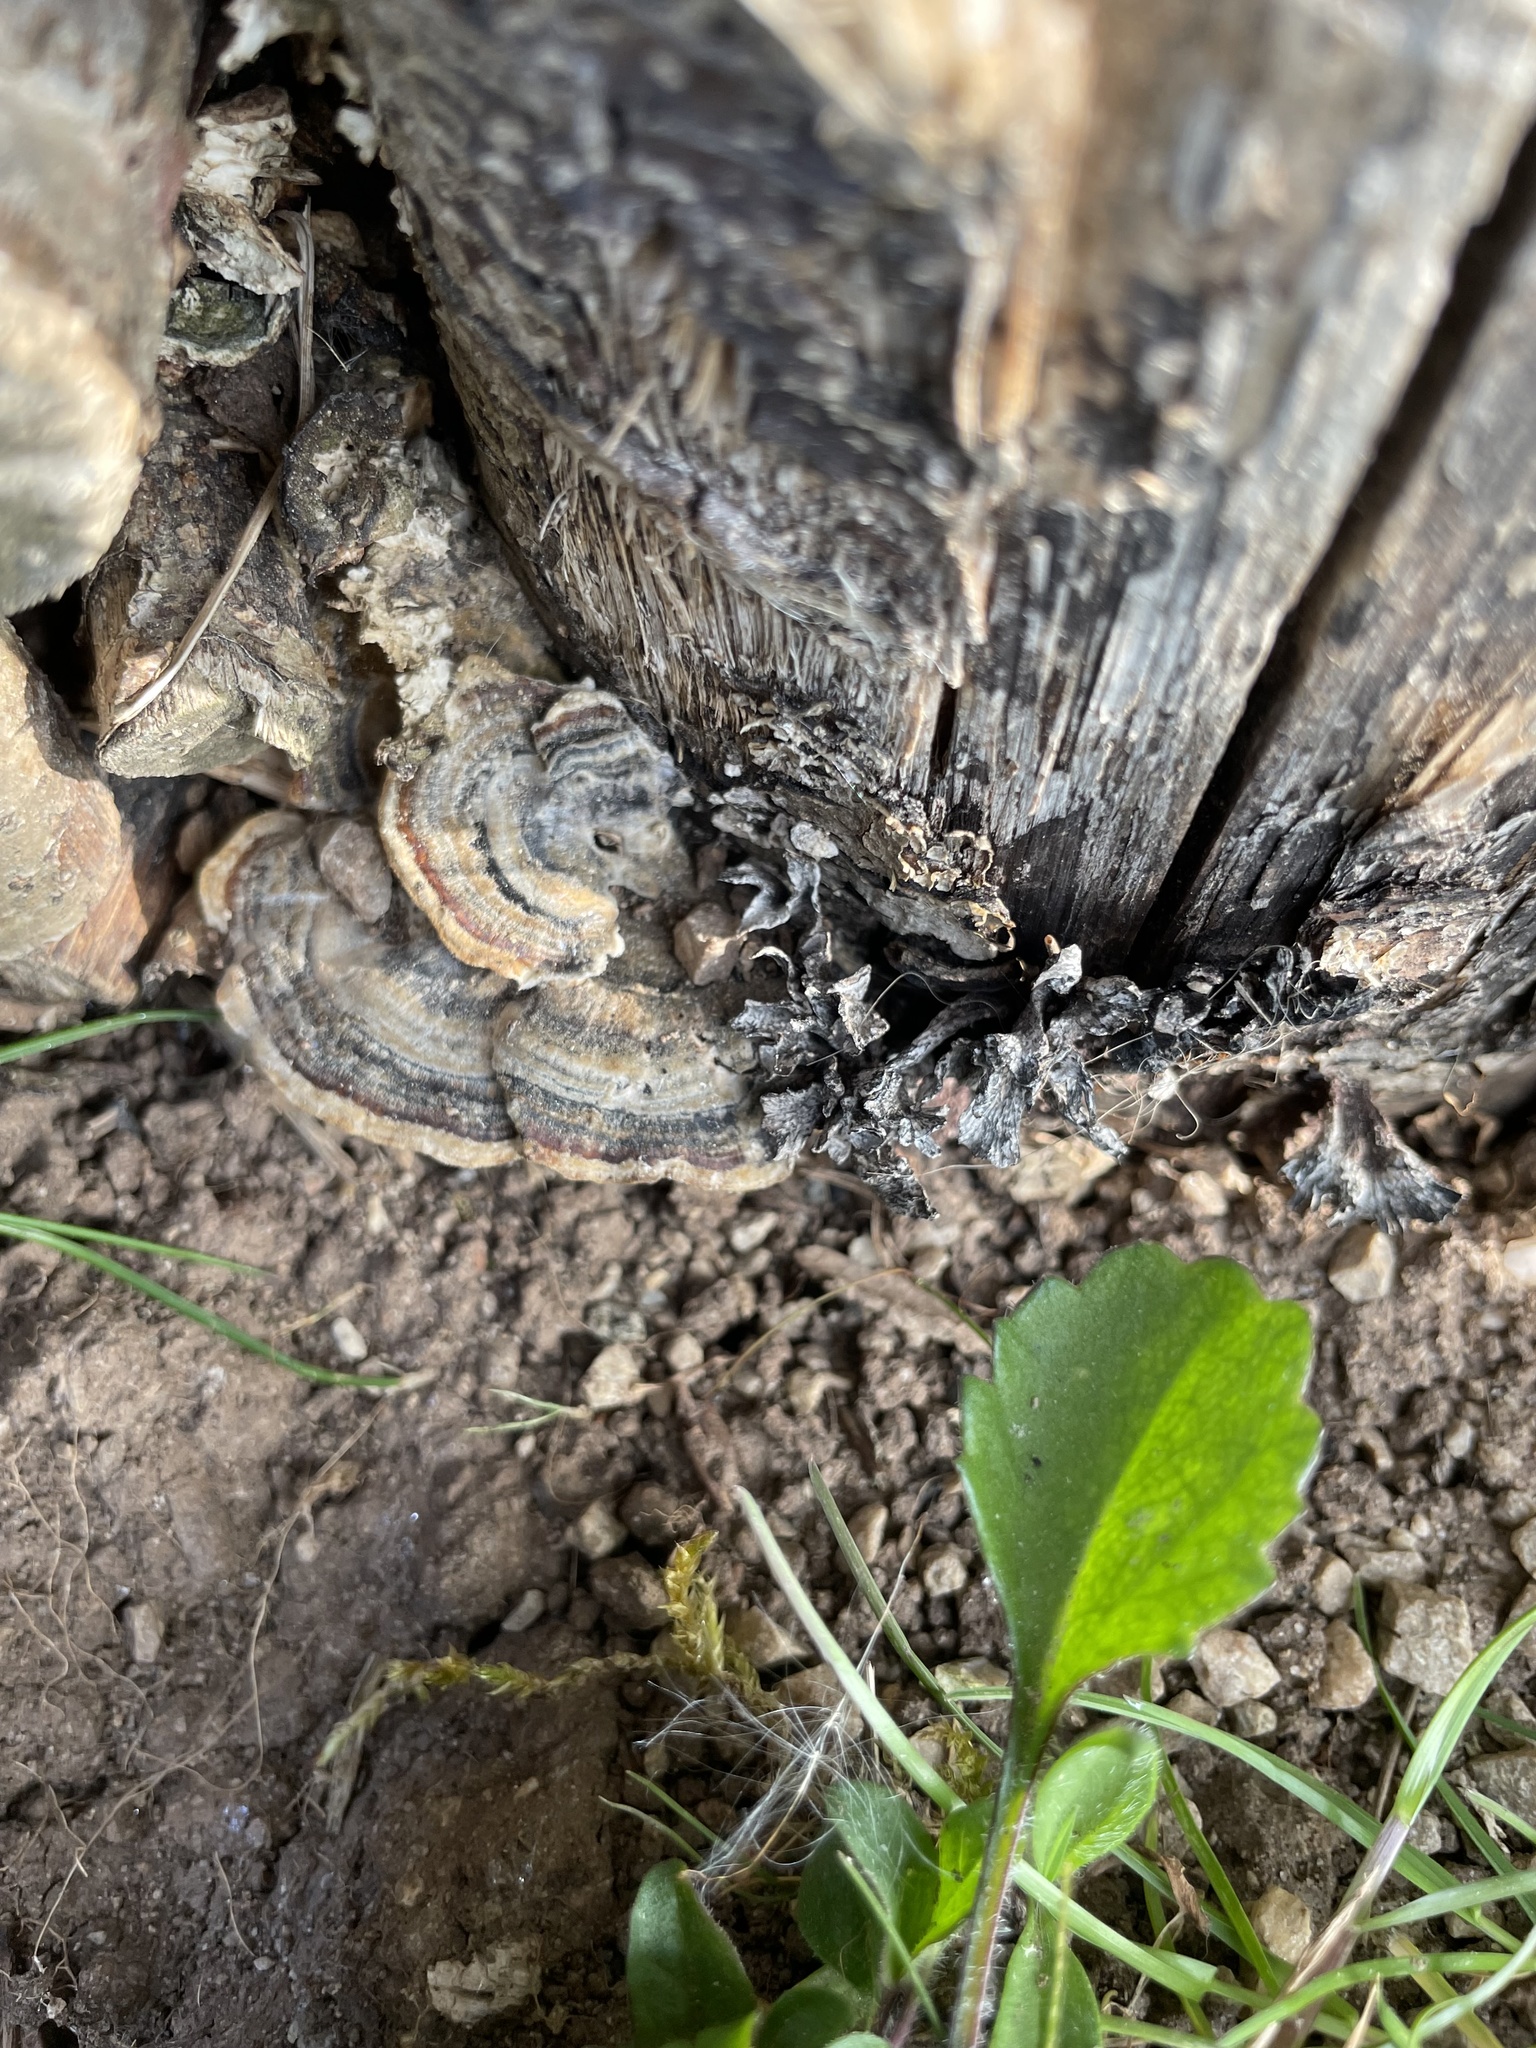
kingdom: Fungi
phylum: Basidiomycota
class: Agaricomycetes
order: Polyporales
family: Polyporaceae
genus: Trametes
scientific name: Trametes versicolor
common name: Turkeytail
